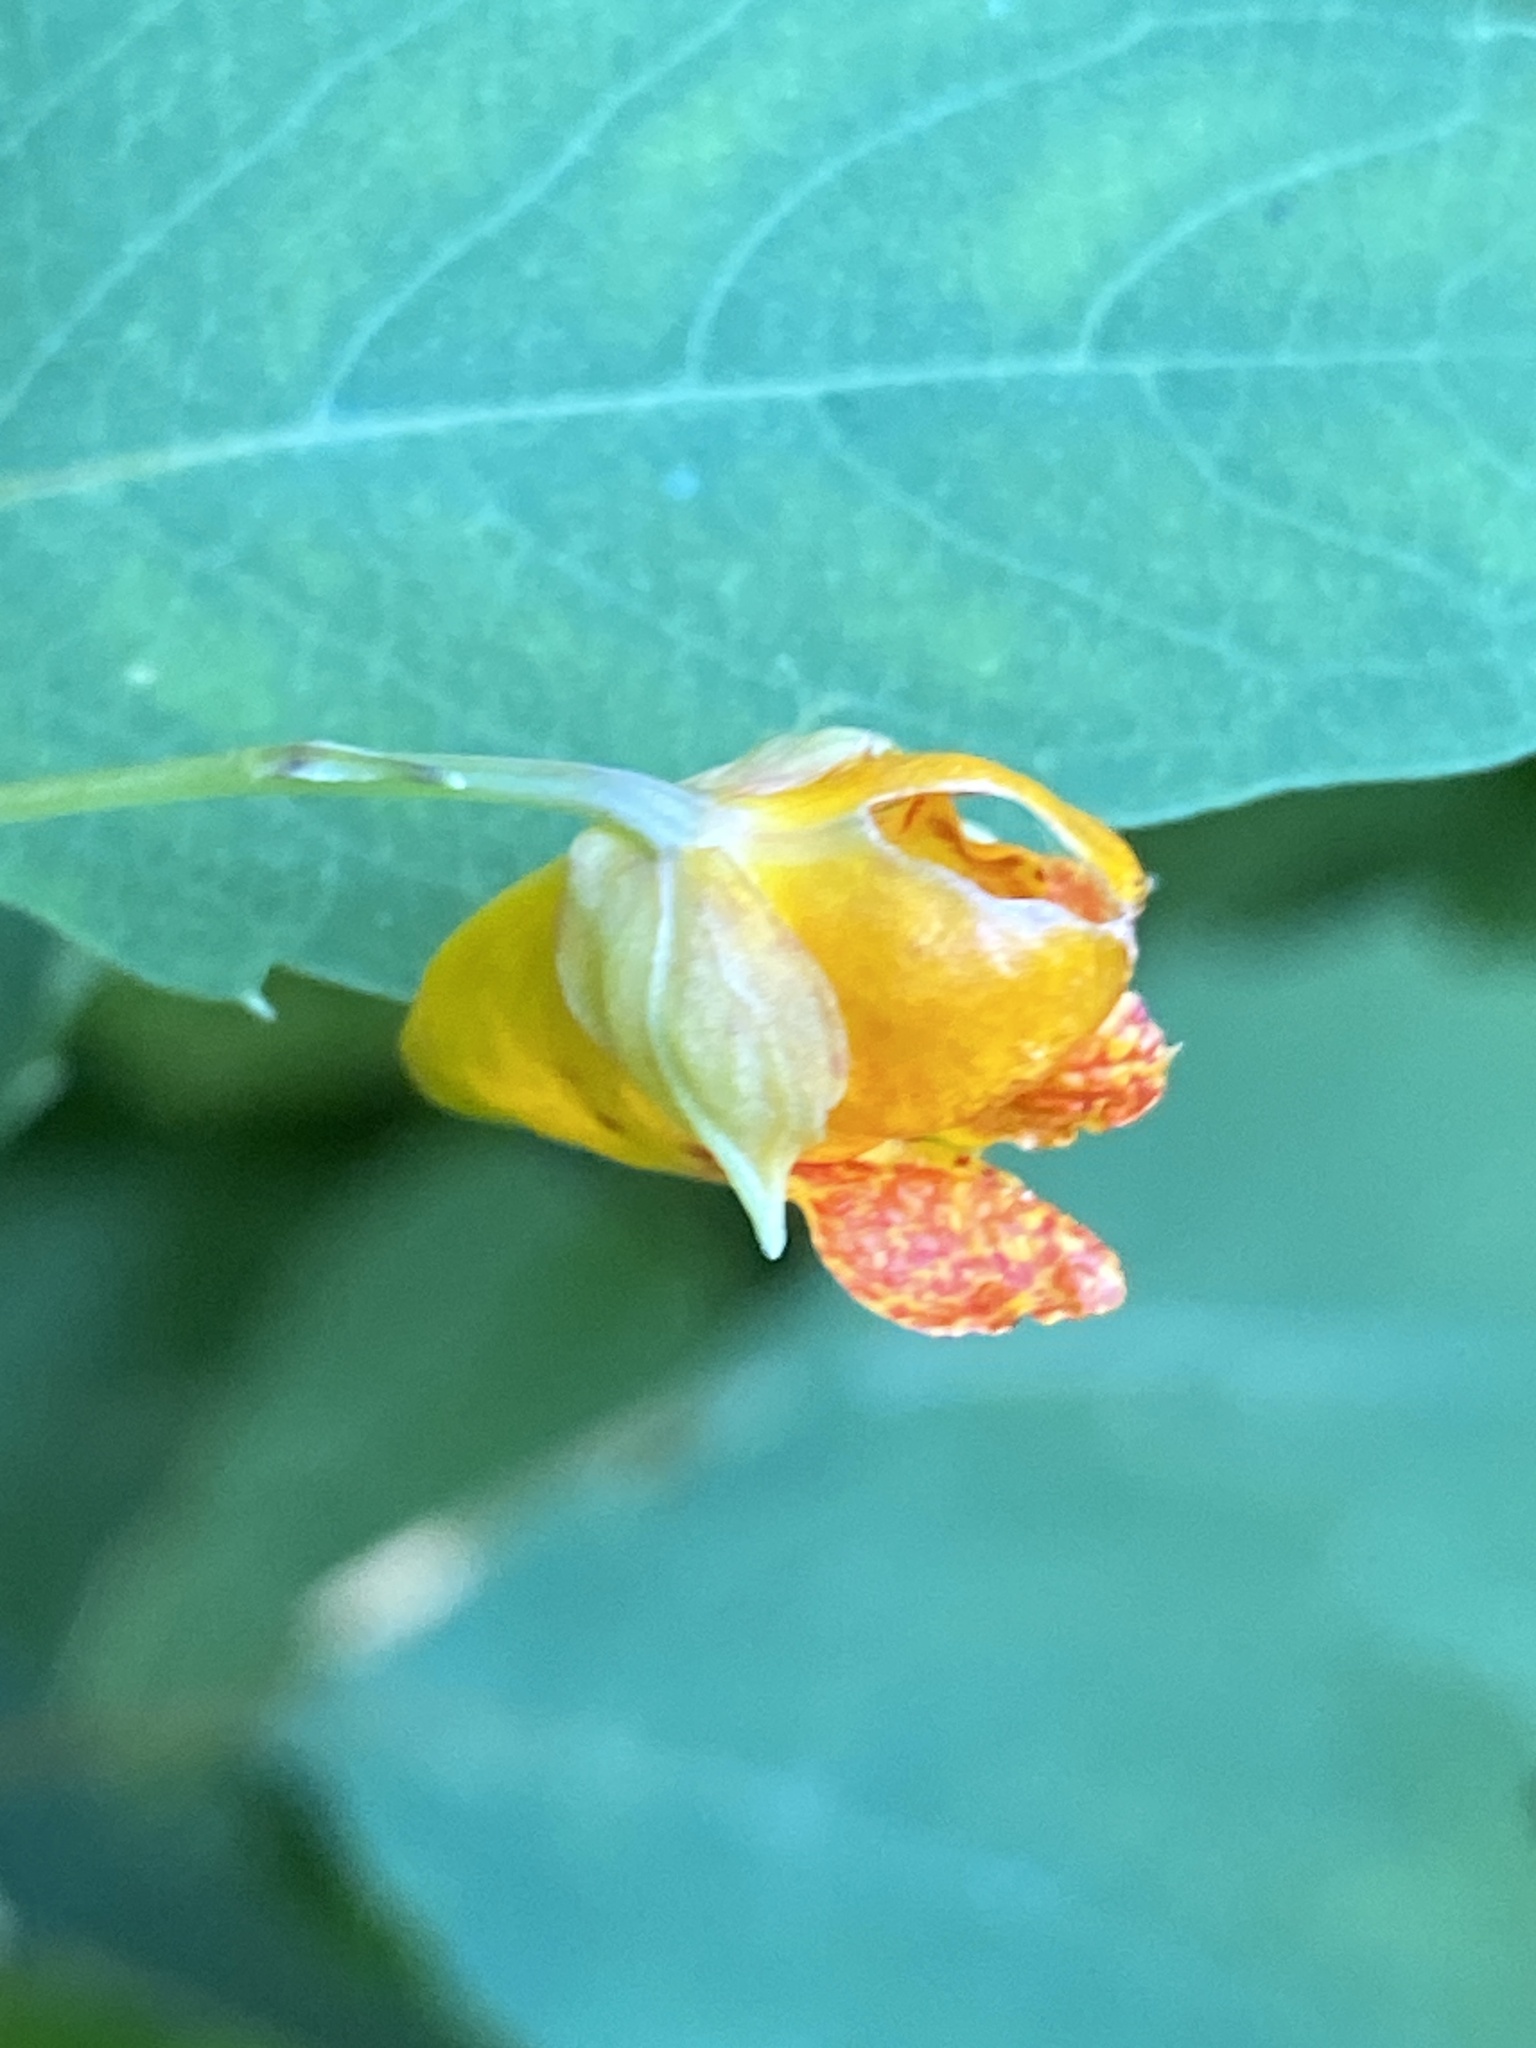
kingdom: Plantae
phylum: Tracheophyta
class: Magnoliopsida
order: Ericales
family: Balsaminaceae
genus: Impatiens
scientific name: Impatiens capensis
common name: Orange balsam
